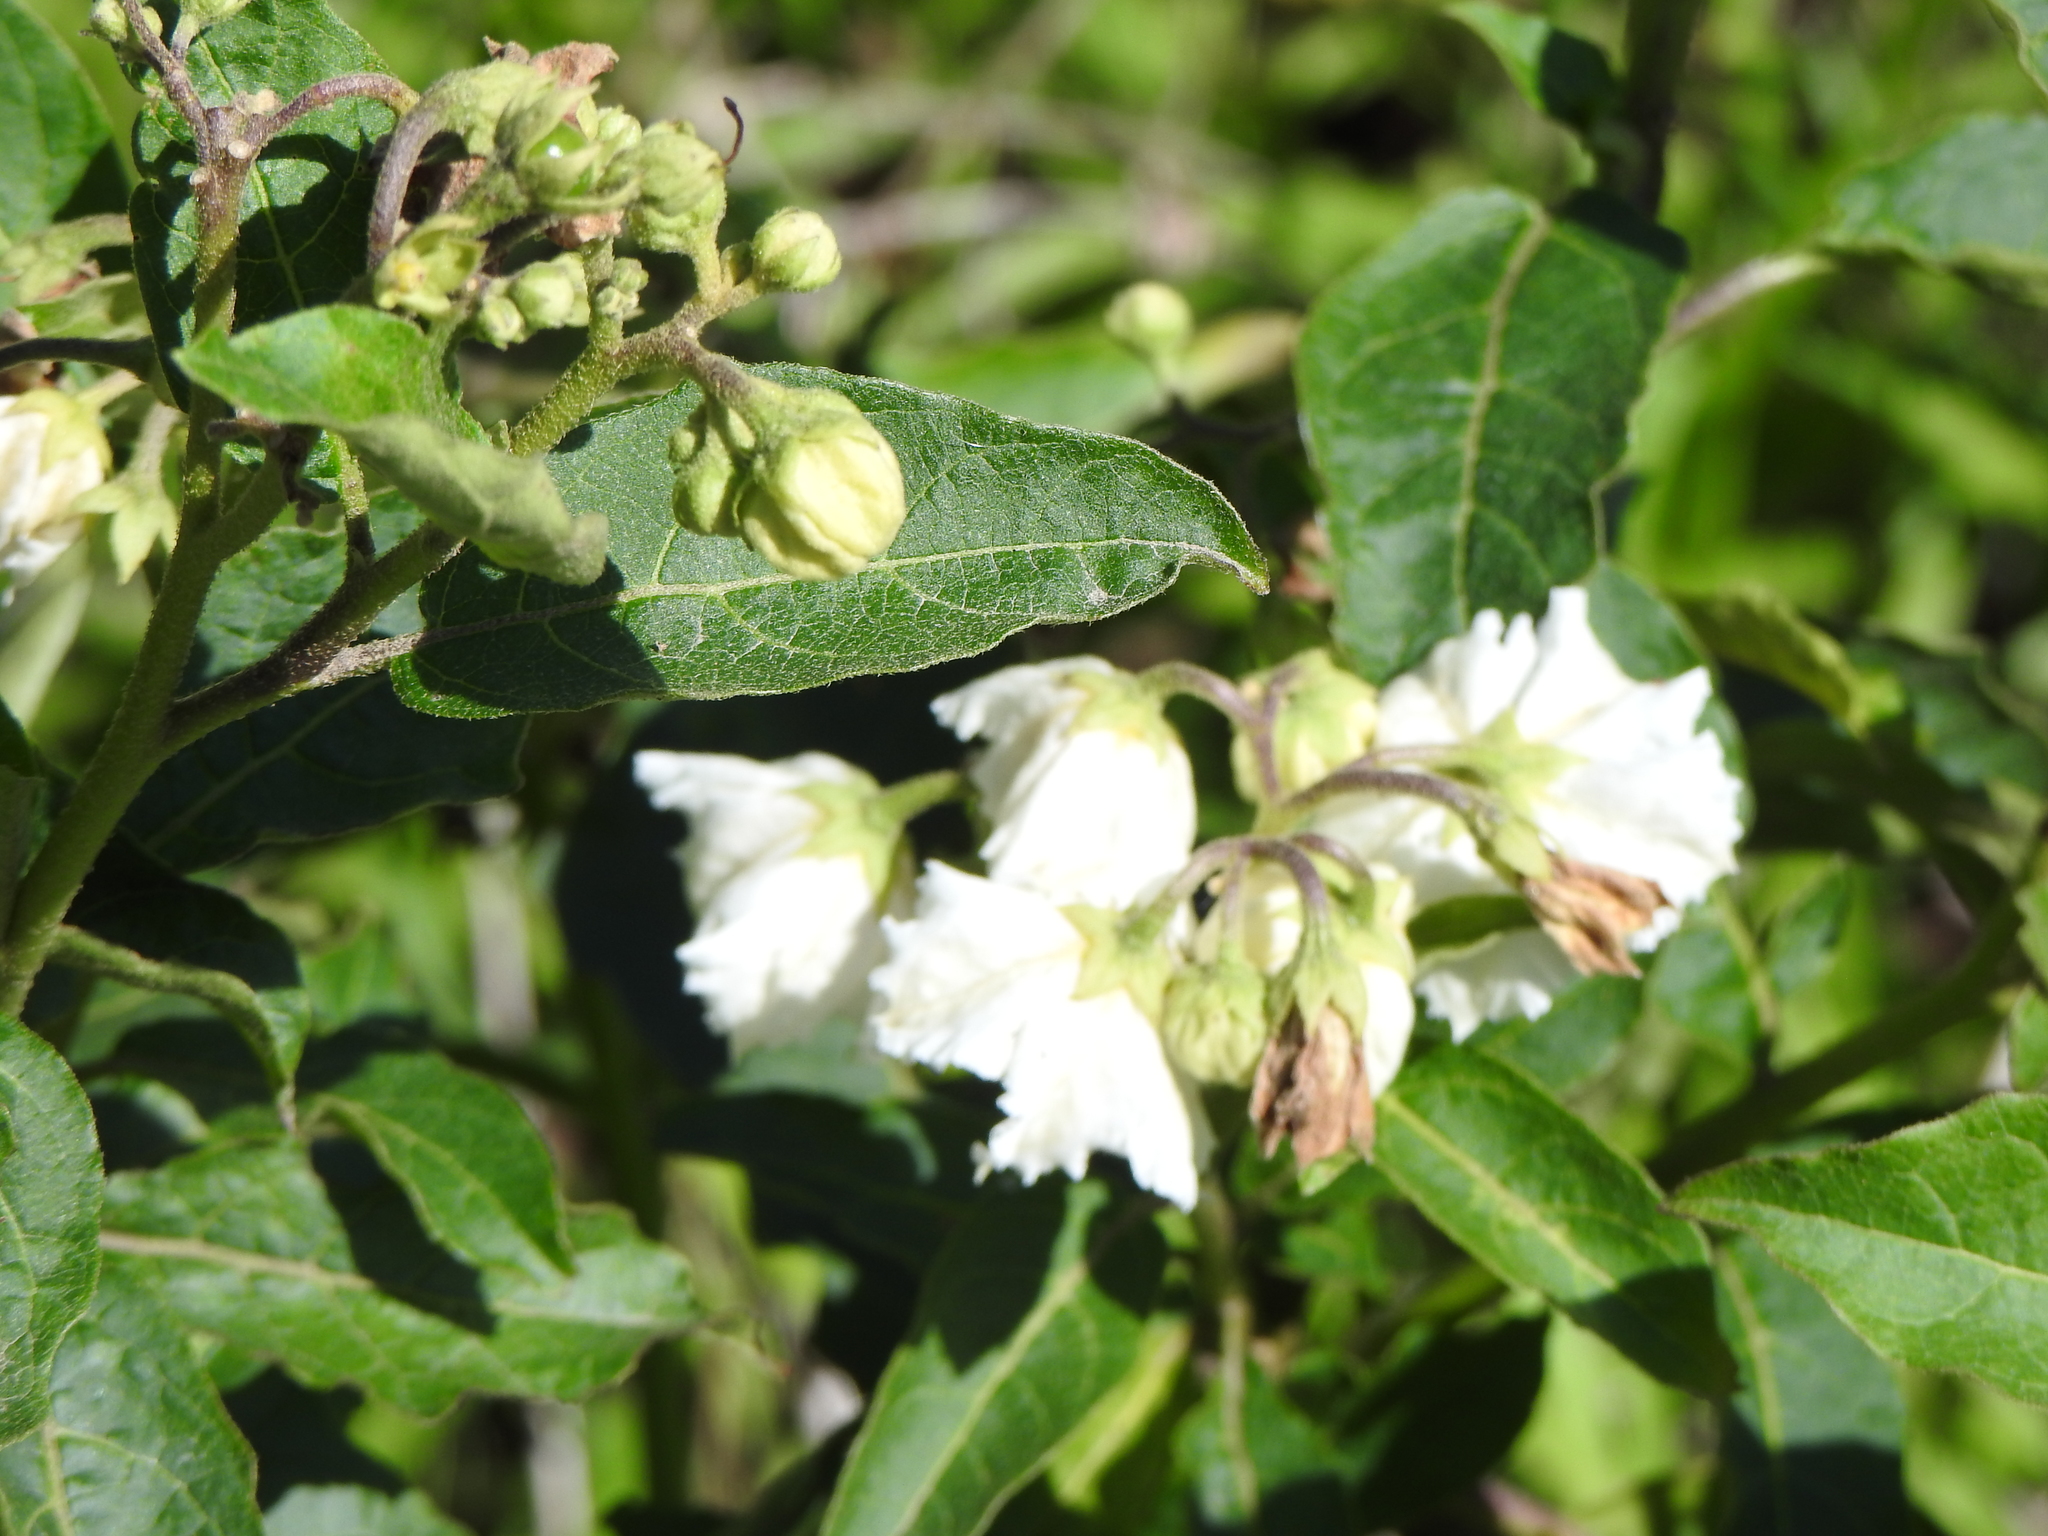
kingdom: Plantae
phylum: Tracheophyta
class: Magnoliopsida
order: Solanales
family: Solanaceae
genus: Solanum
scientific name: Solanum bonariense
